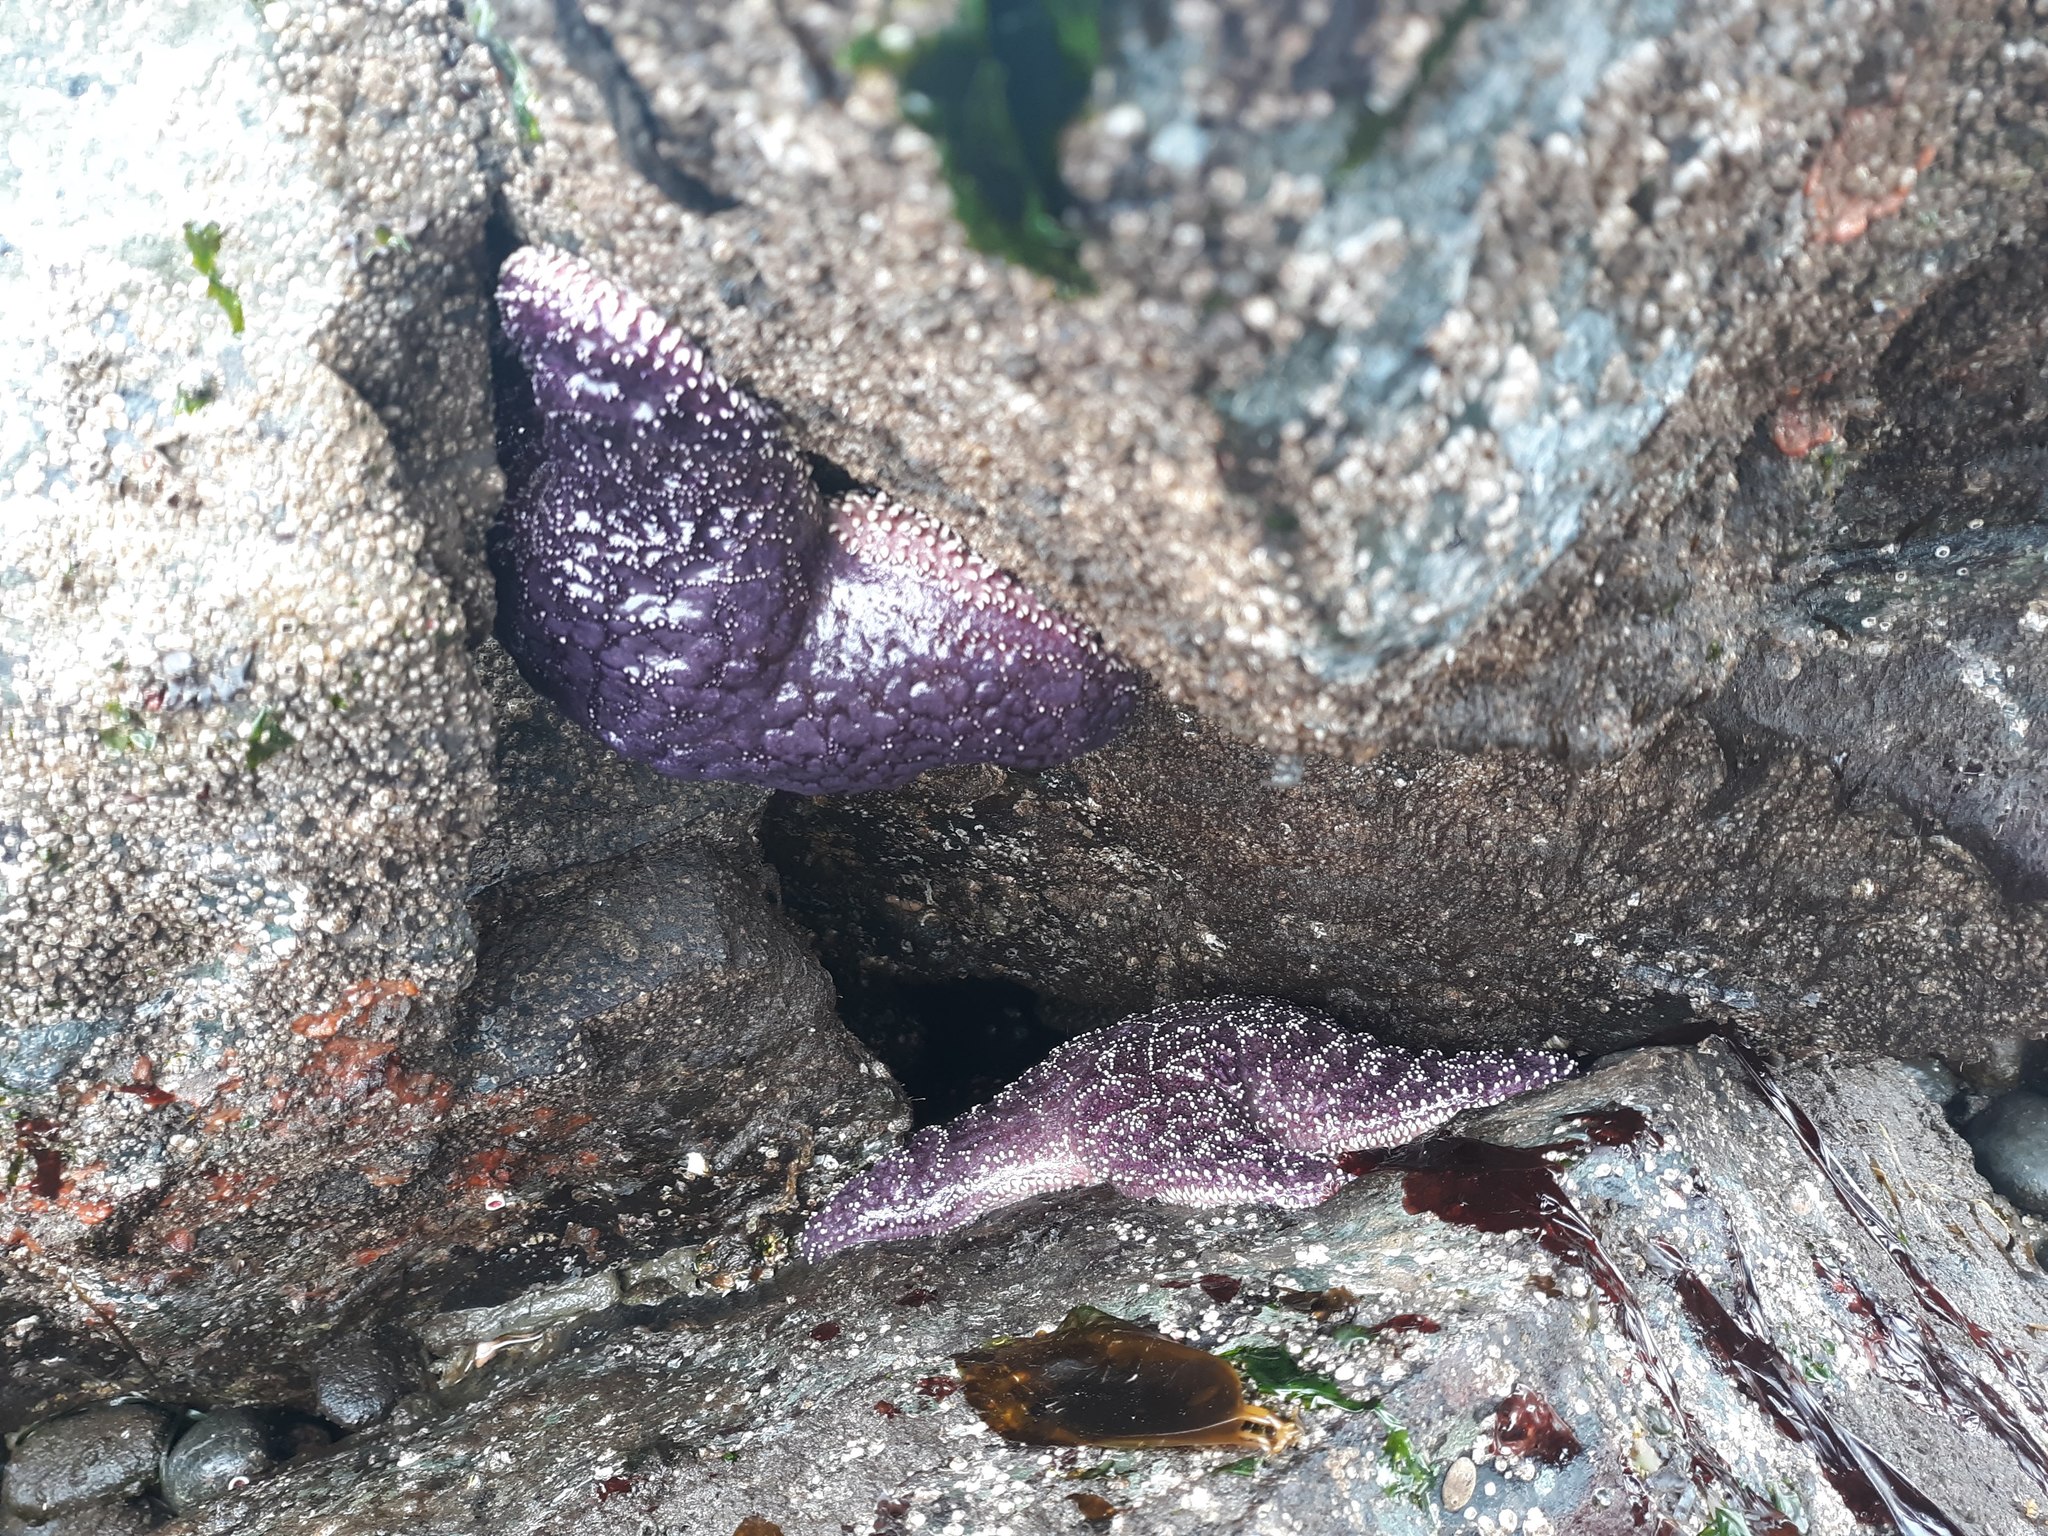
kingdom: Animalia
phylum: Echinodermata
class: Asteroidea
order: Forcipulatida
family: Asteriidae
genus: Pisaster
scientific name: Pisaster ochraceus
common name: Ochre stars
